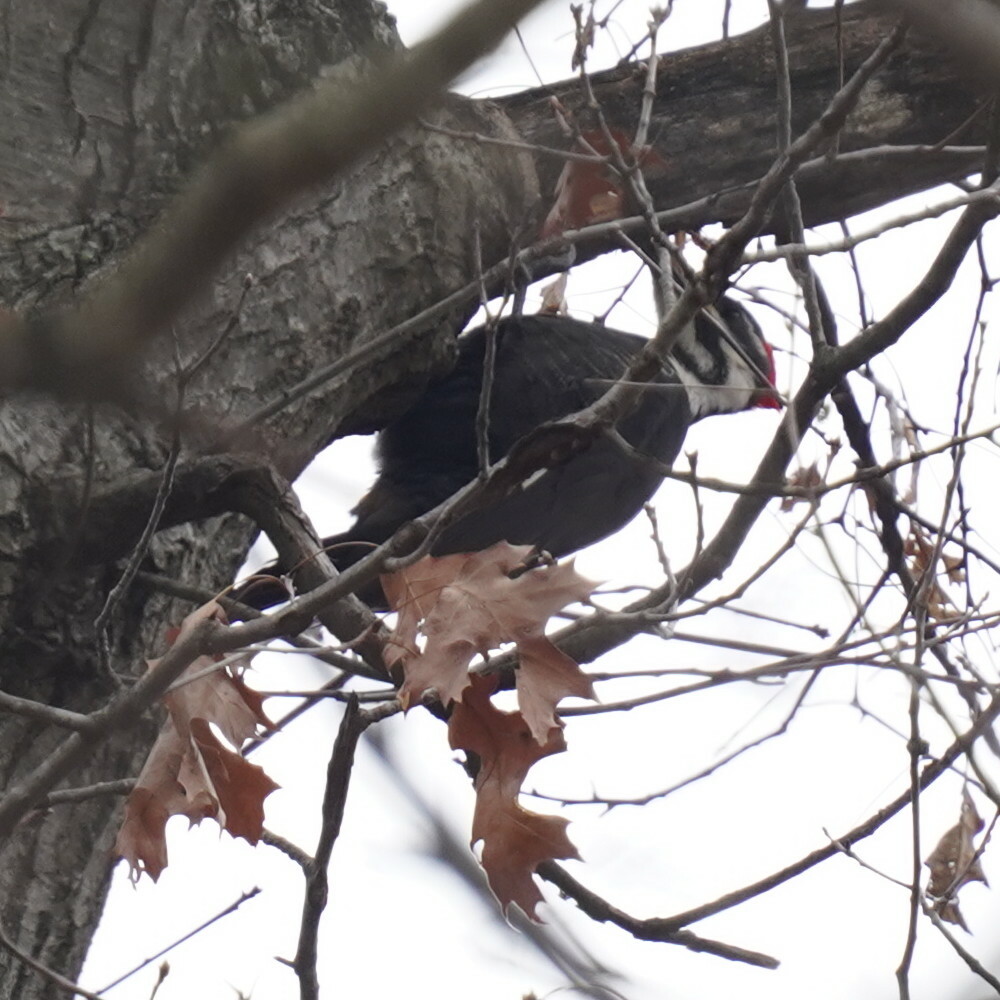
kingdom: Animalia
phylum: Chordata
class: Aves
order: Piciformes
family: Picidae
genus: Dryocopus
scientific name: Dryocopus pileatus
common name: Pileated woodpecker
